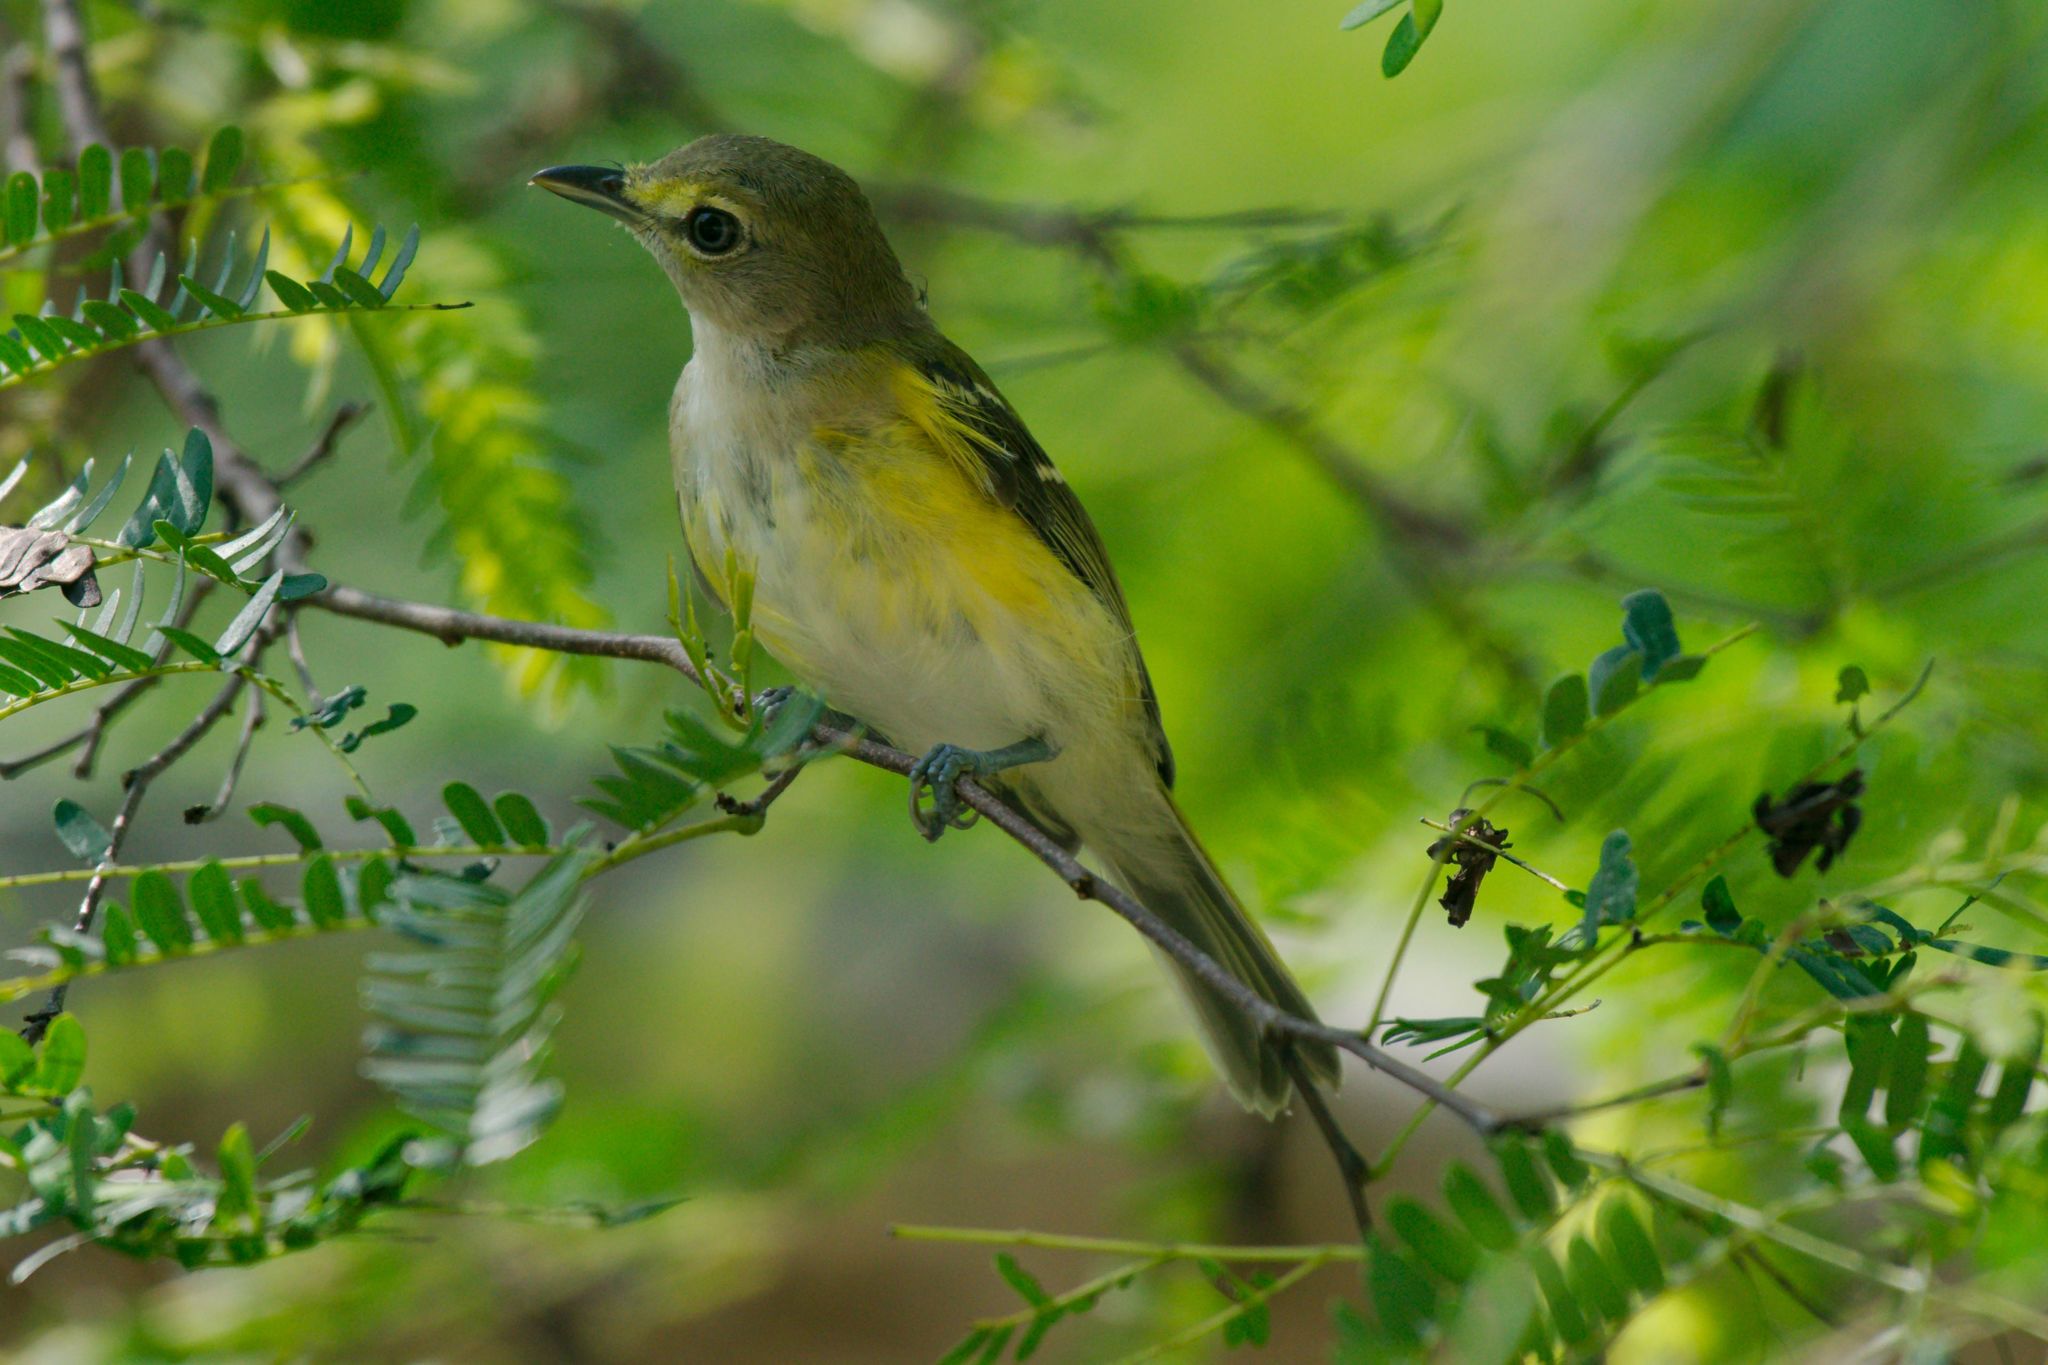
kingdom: Animalia
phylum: Chordata
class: Aves
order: Passeriformes
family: Vireonidae
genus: Vireo
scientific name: Vireo griseus
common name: White-eyed vireo
